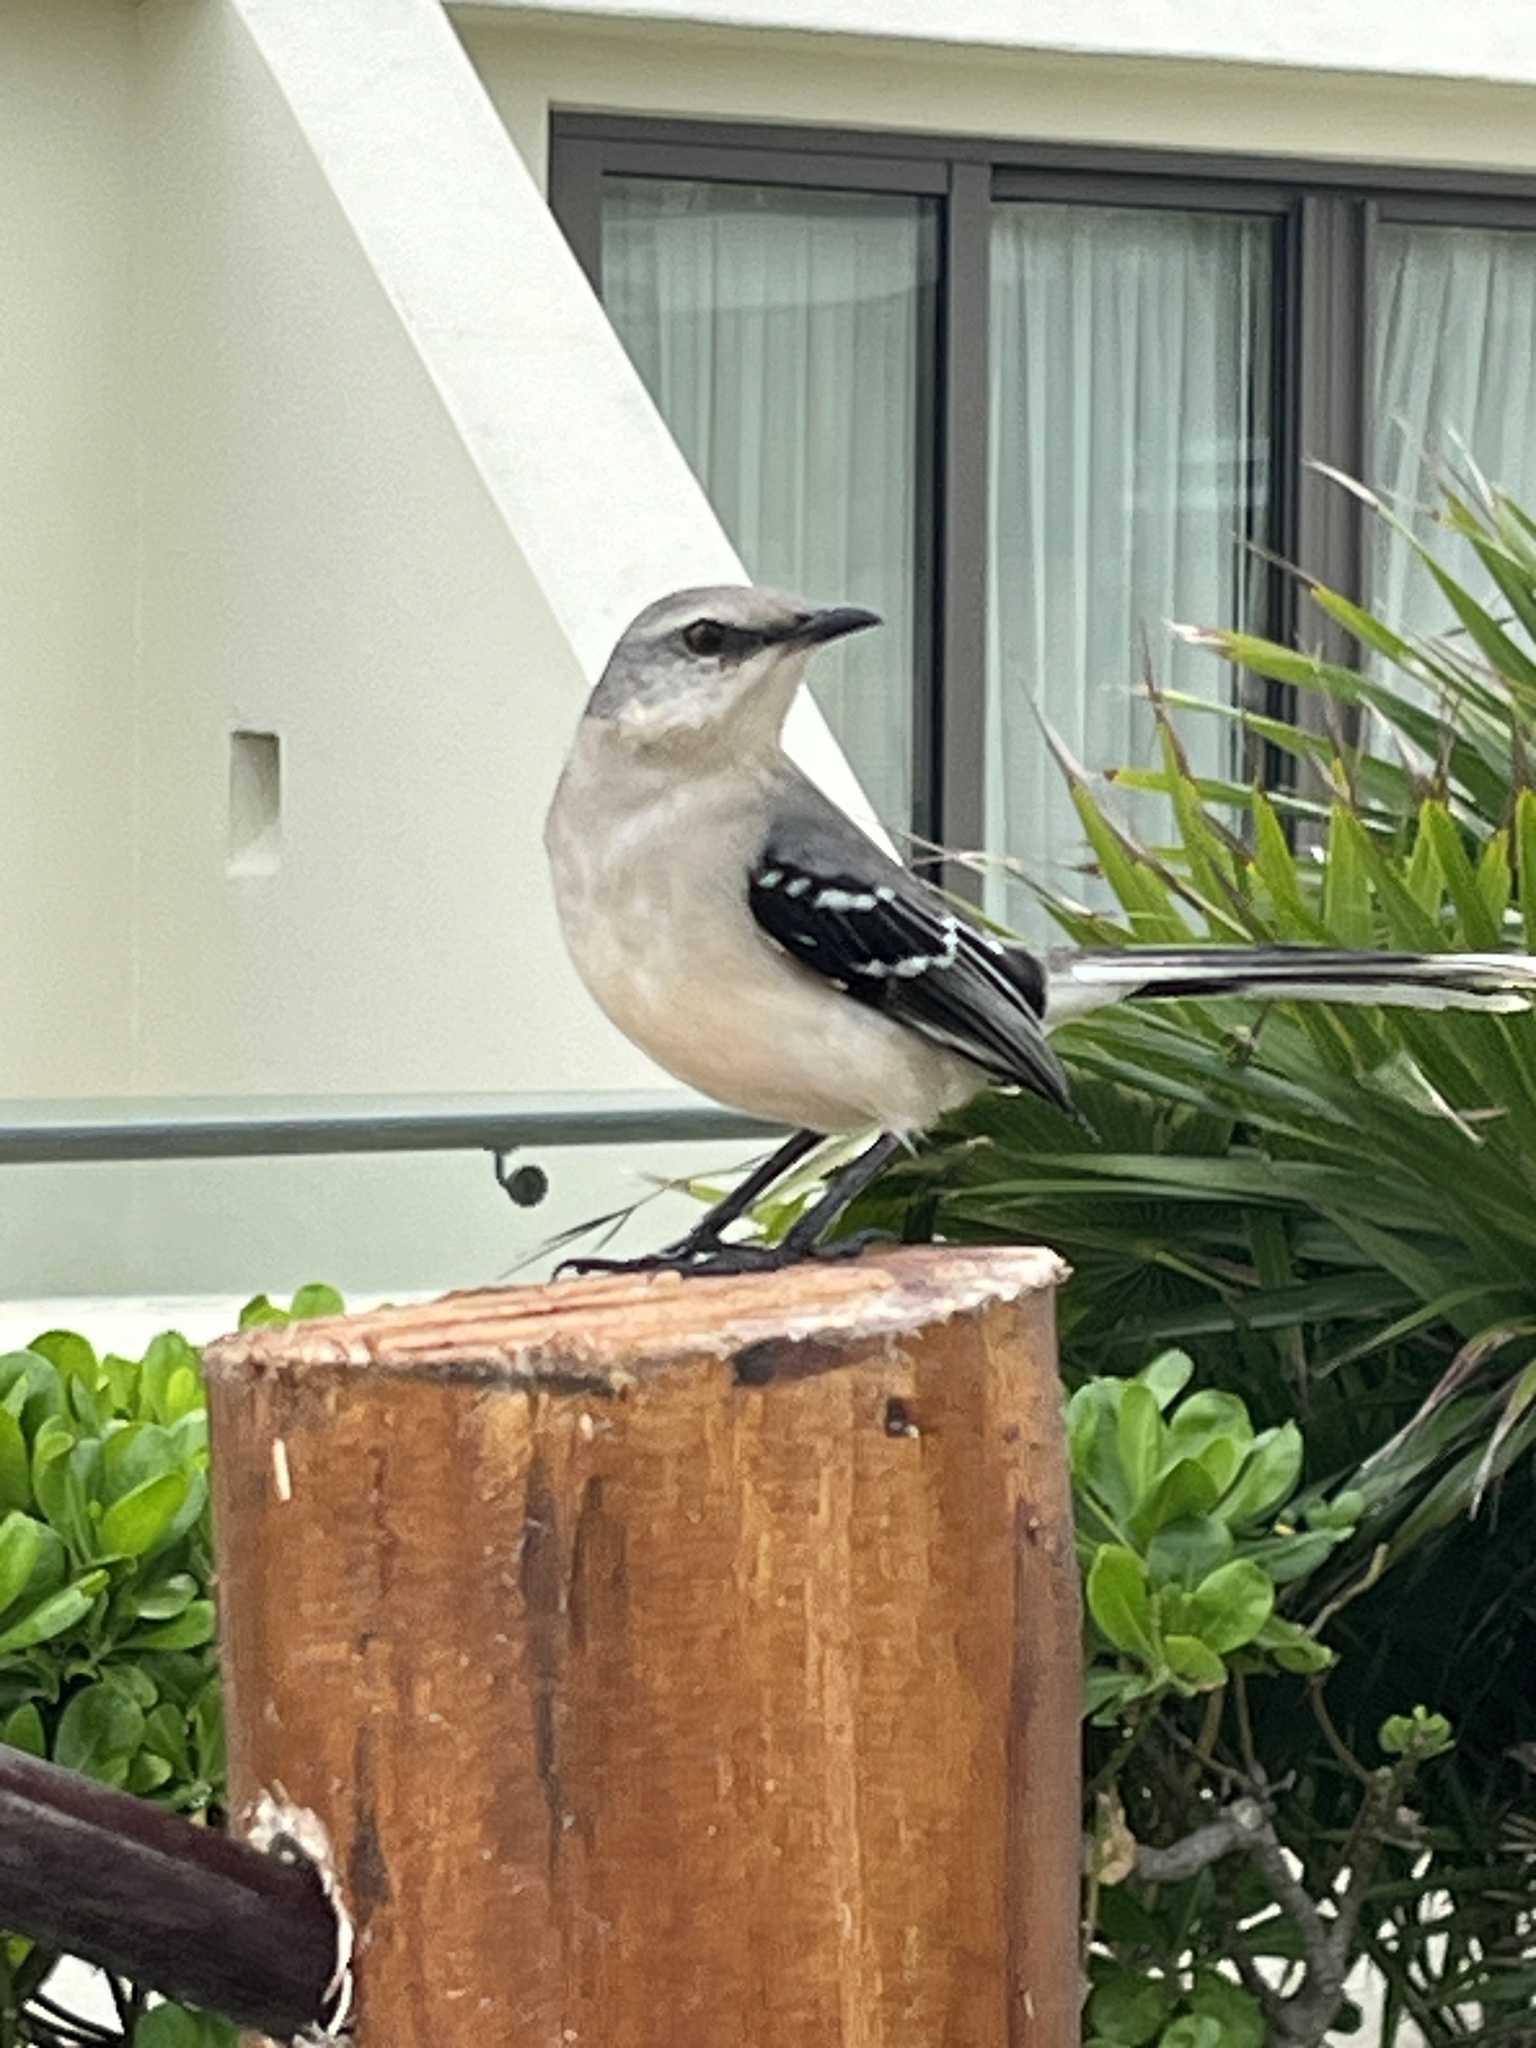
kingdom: Animalia
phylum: Chordata
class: Aves
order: Passeriformes
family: Mimidae
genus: Mimus
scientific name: Mimus gilvus
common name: Tropical mockingbird
